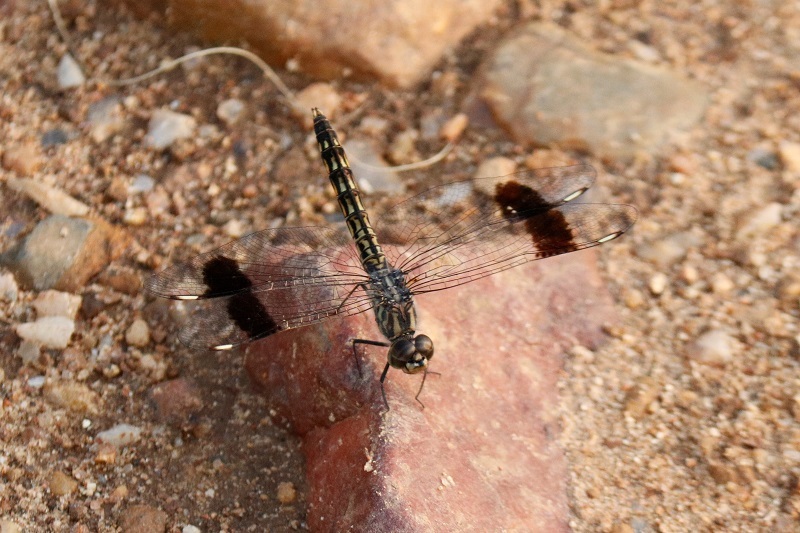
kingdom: Animalia
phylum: Arthropoda
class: Insecta
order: Odonata
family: Libellulidae
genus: Brachythemis
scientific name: Brachythemis leucosticta
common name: Banded groundling
